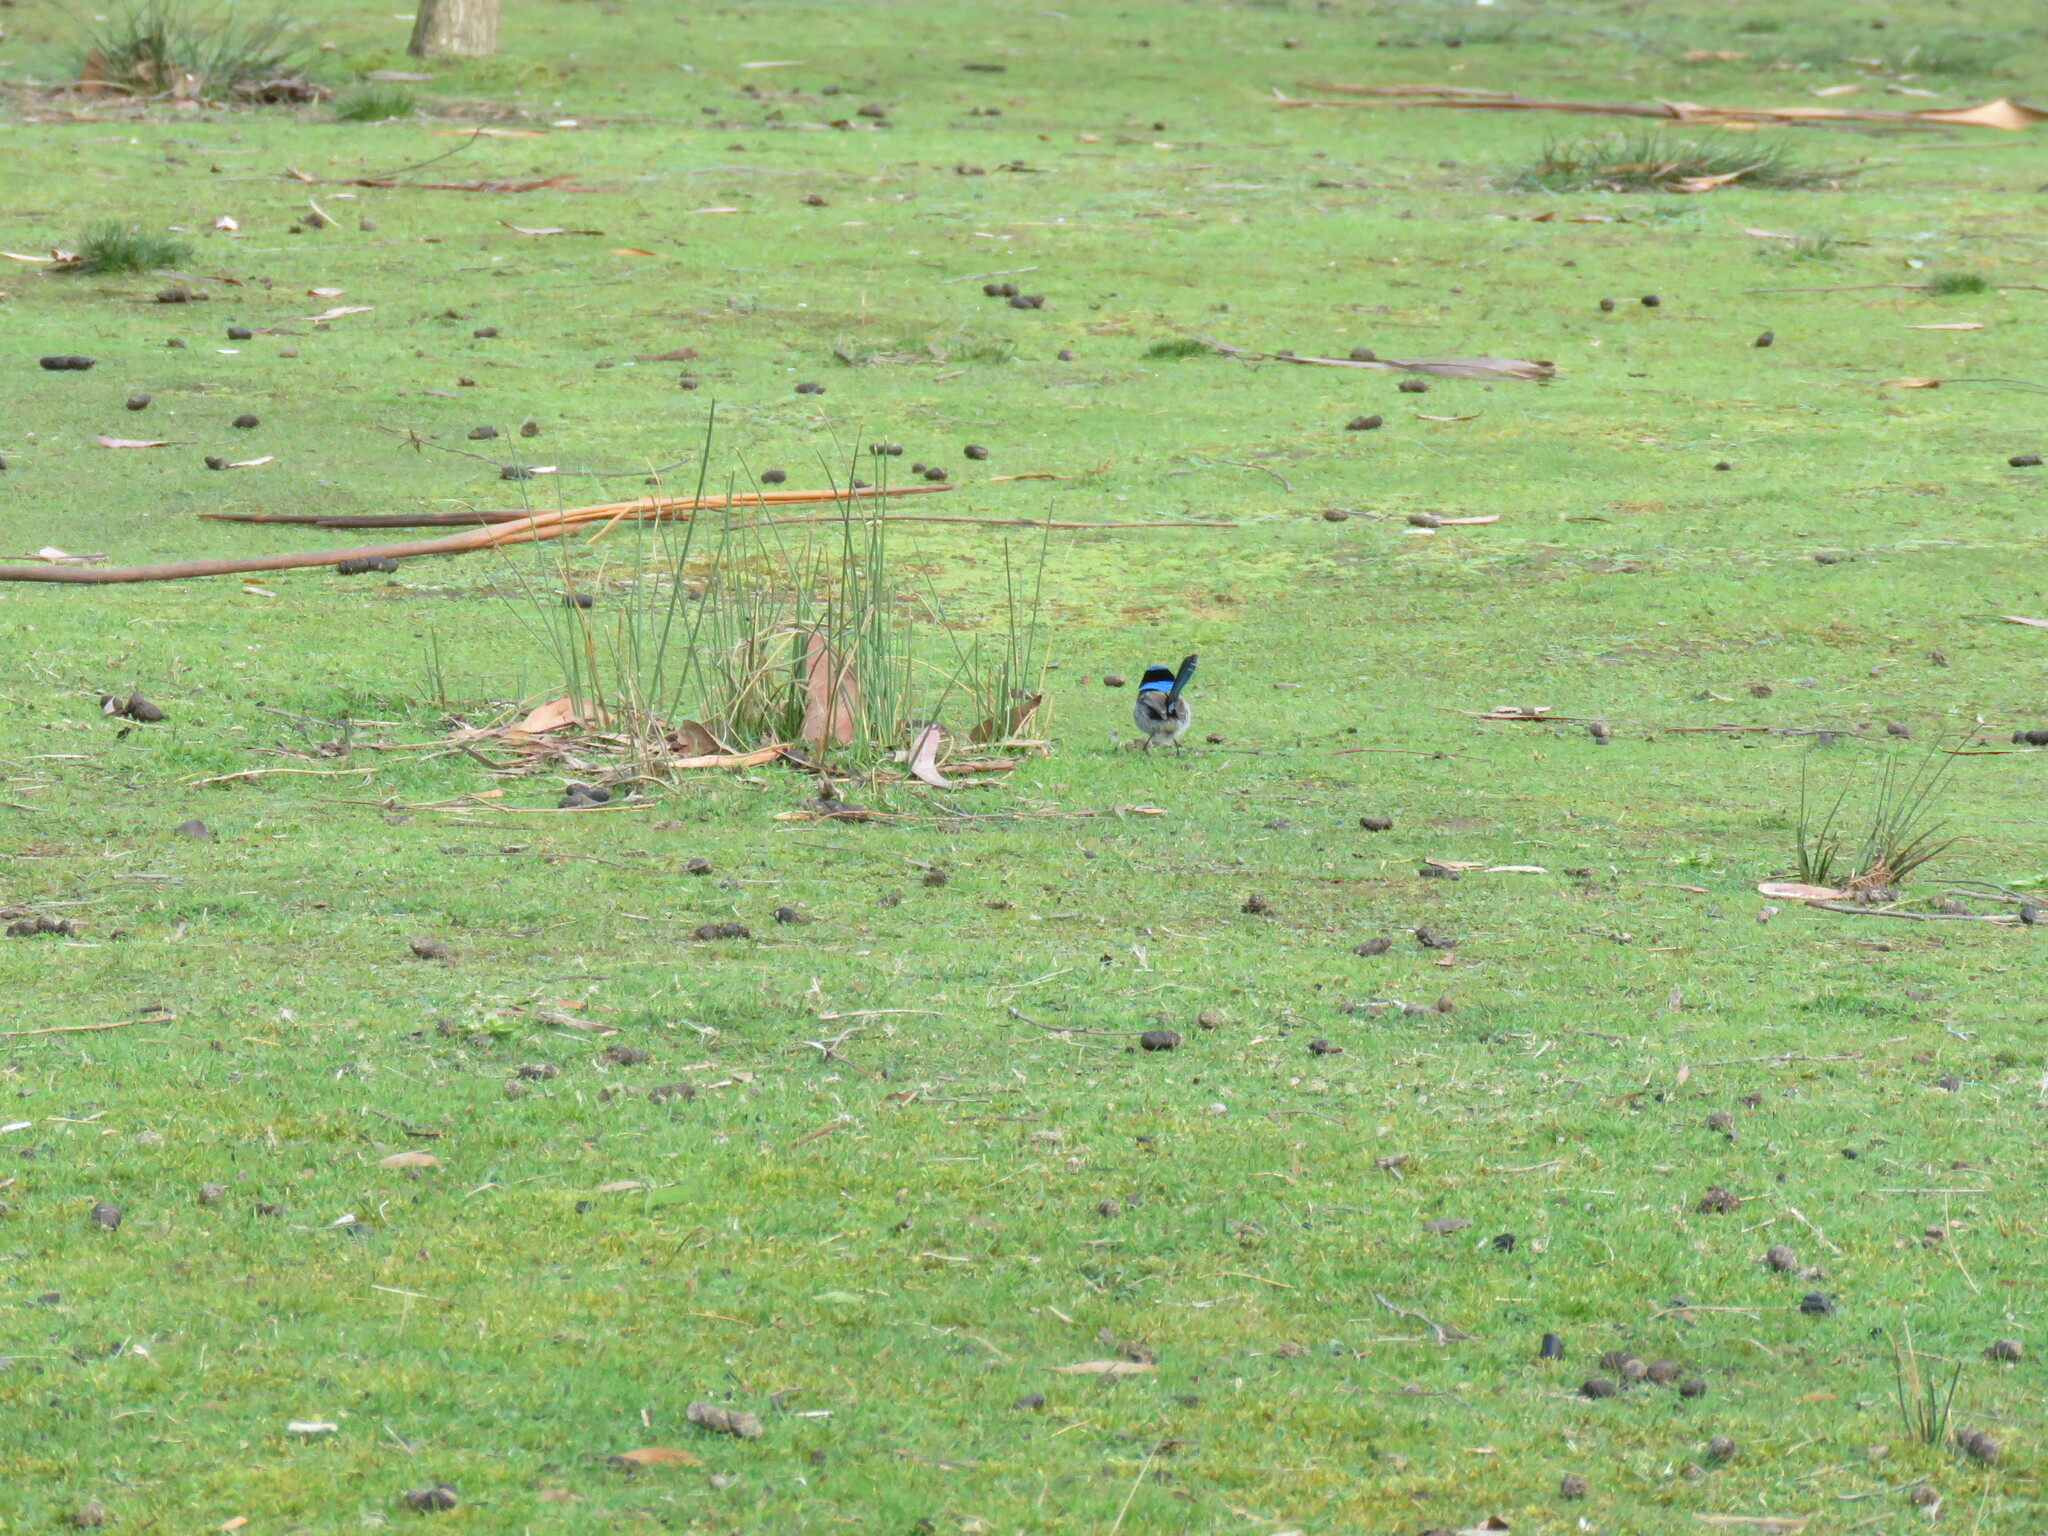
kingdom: Animalia
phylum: Chordata
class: Aves
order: Passeriformes
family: Maluridae
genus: Malurus
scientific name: Malurus cyaneus
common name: Superb fairywren
